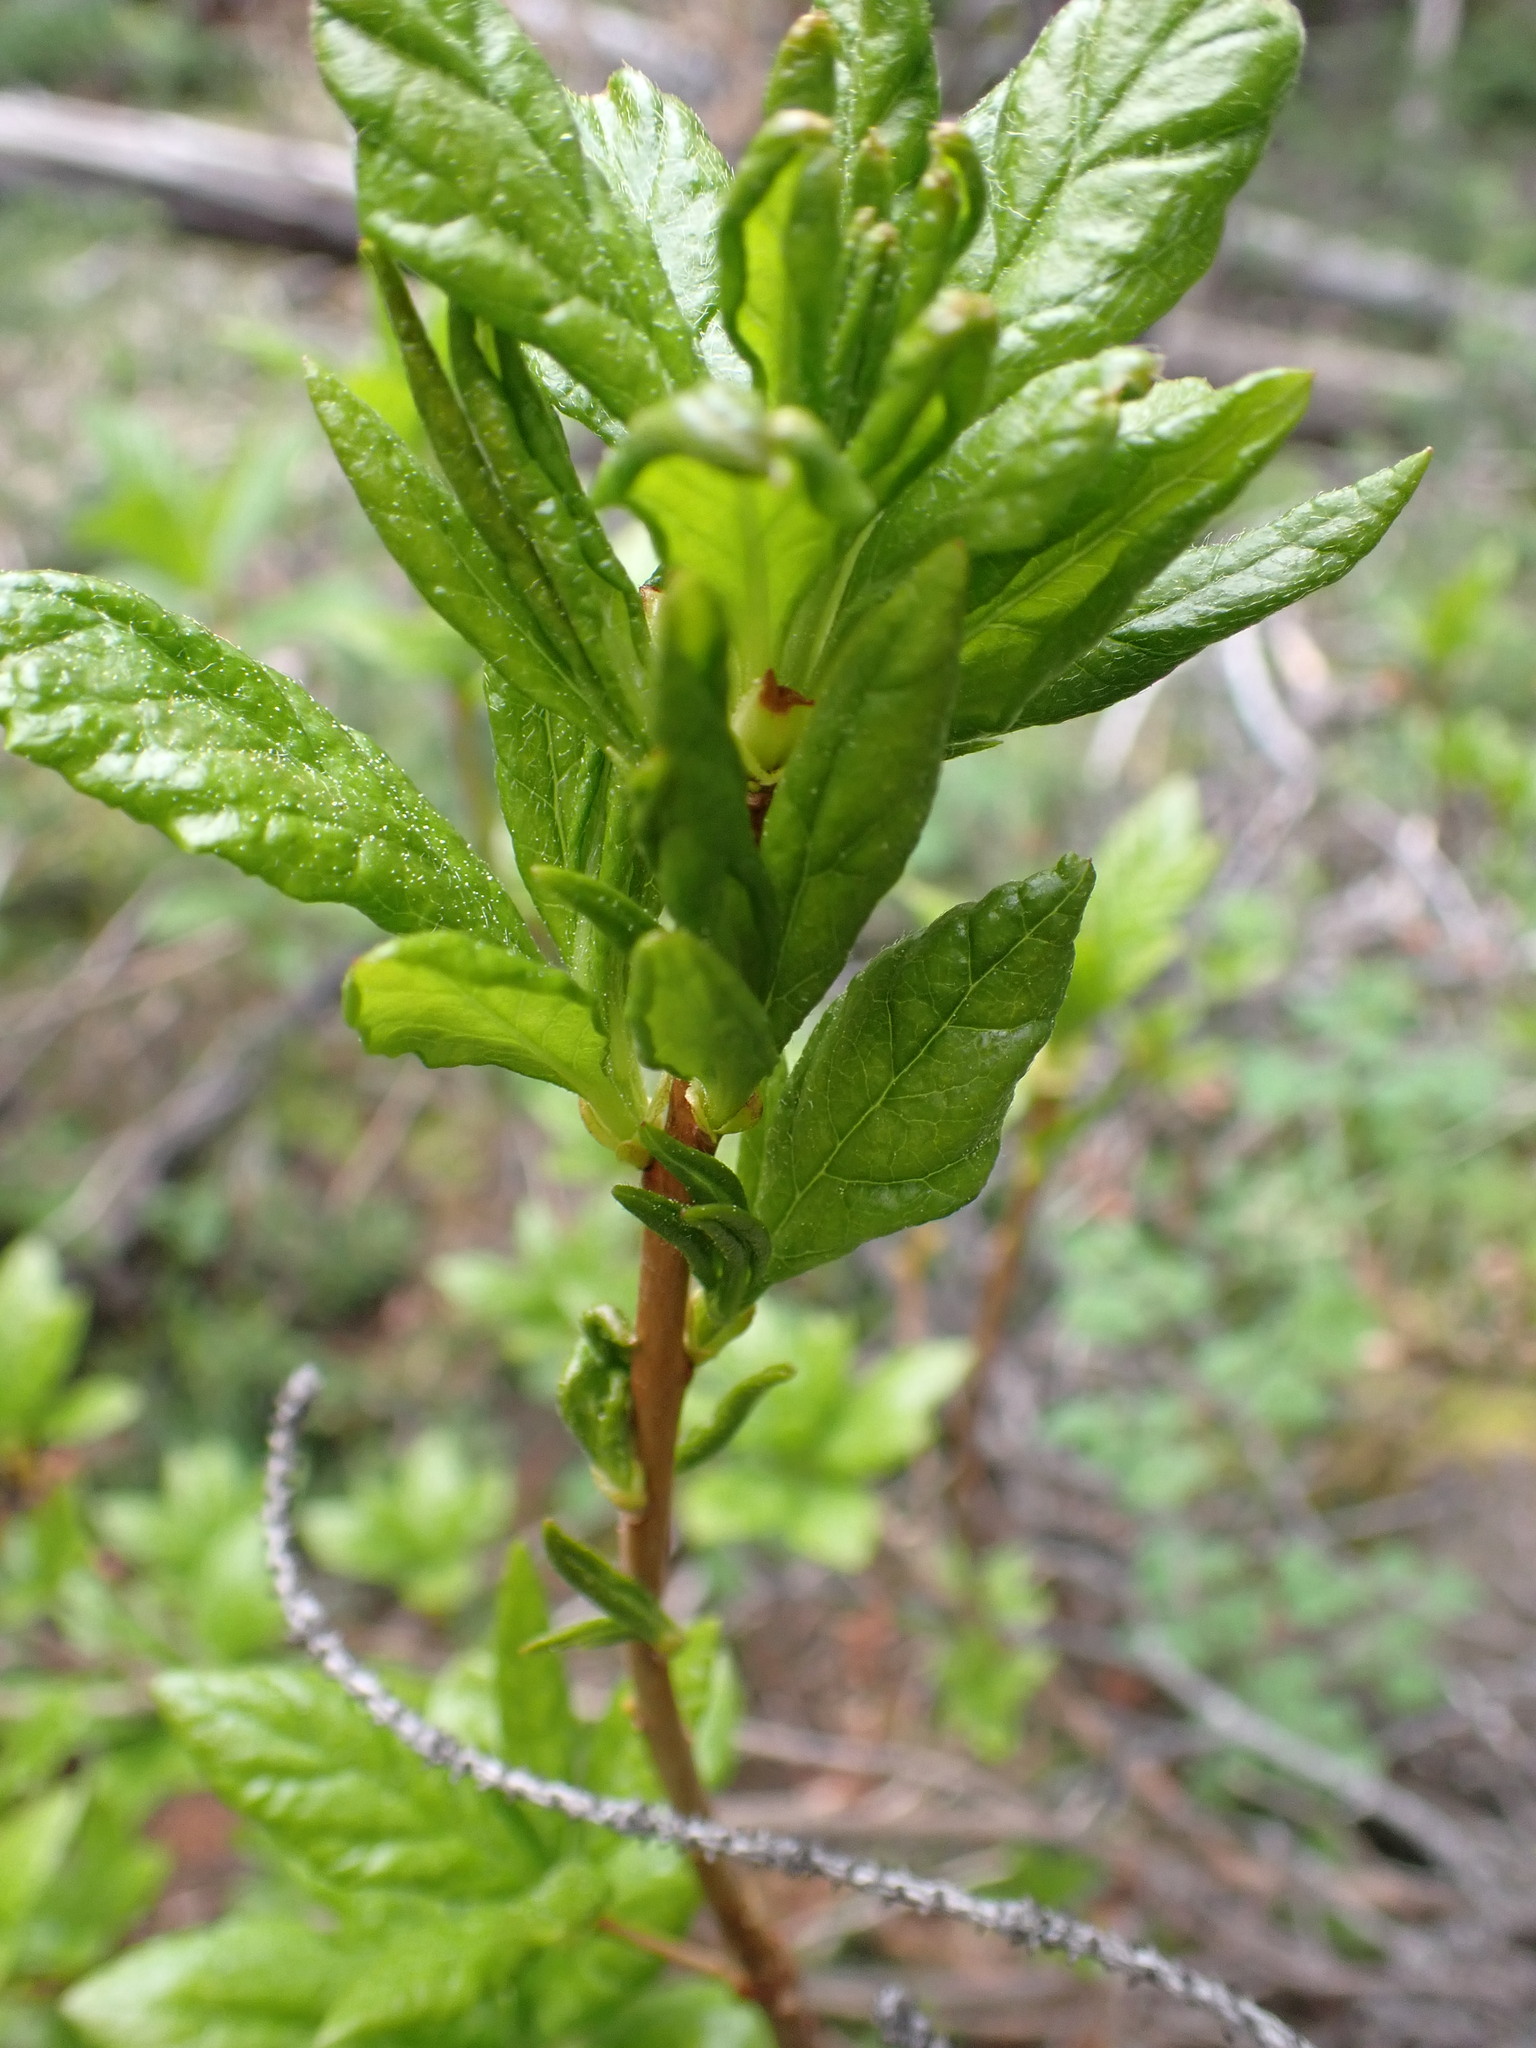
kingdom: Plantae
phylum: Tracheophyta
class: Magnoliopsida
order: Ericales
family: Ericaceae
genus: Rhododendron
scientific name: Rhododendron albiflorum
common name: White rhododendron
